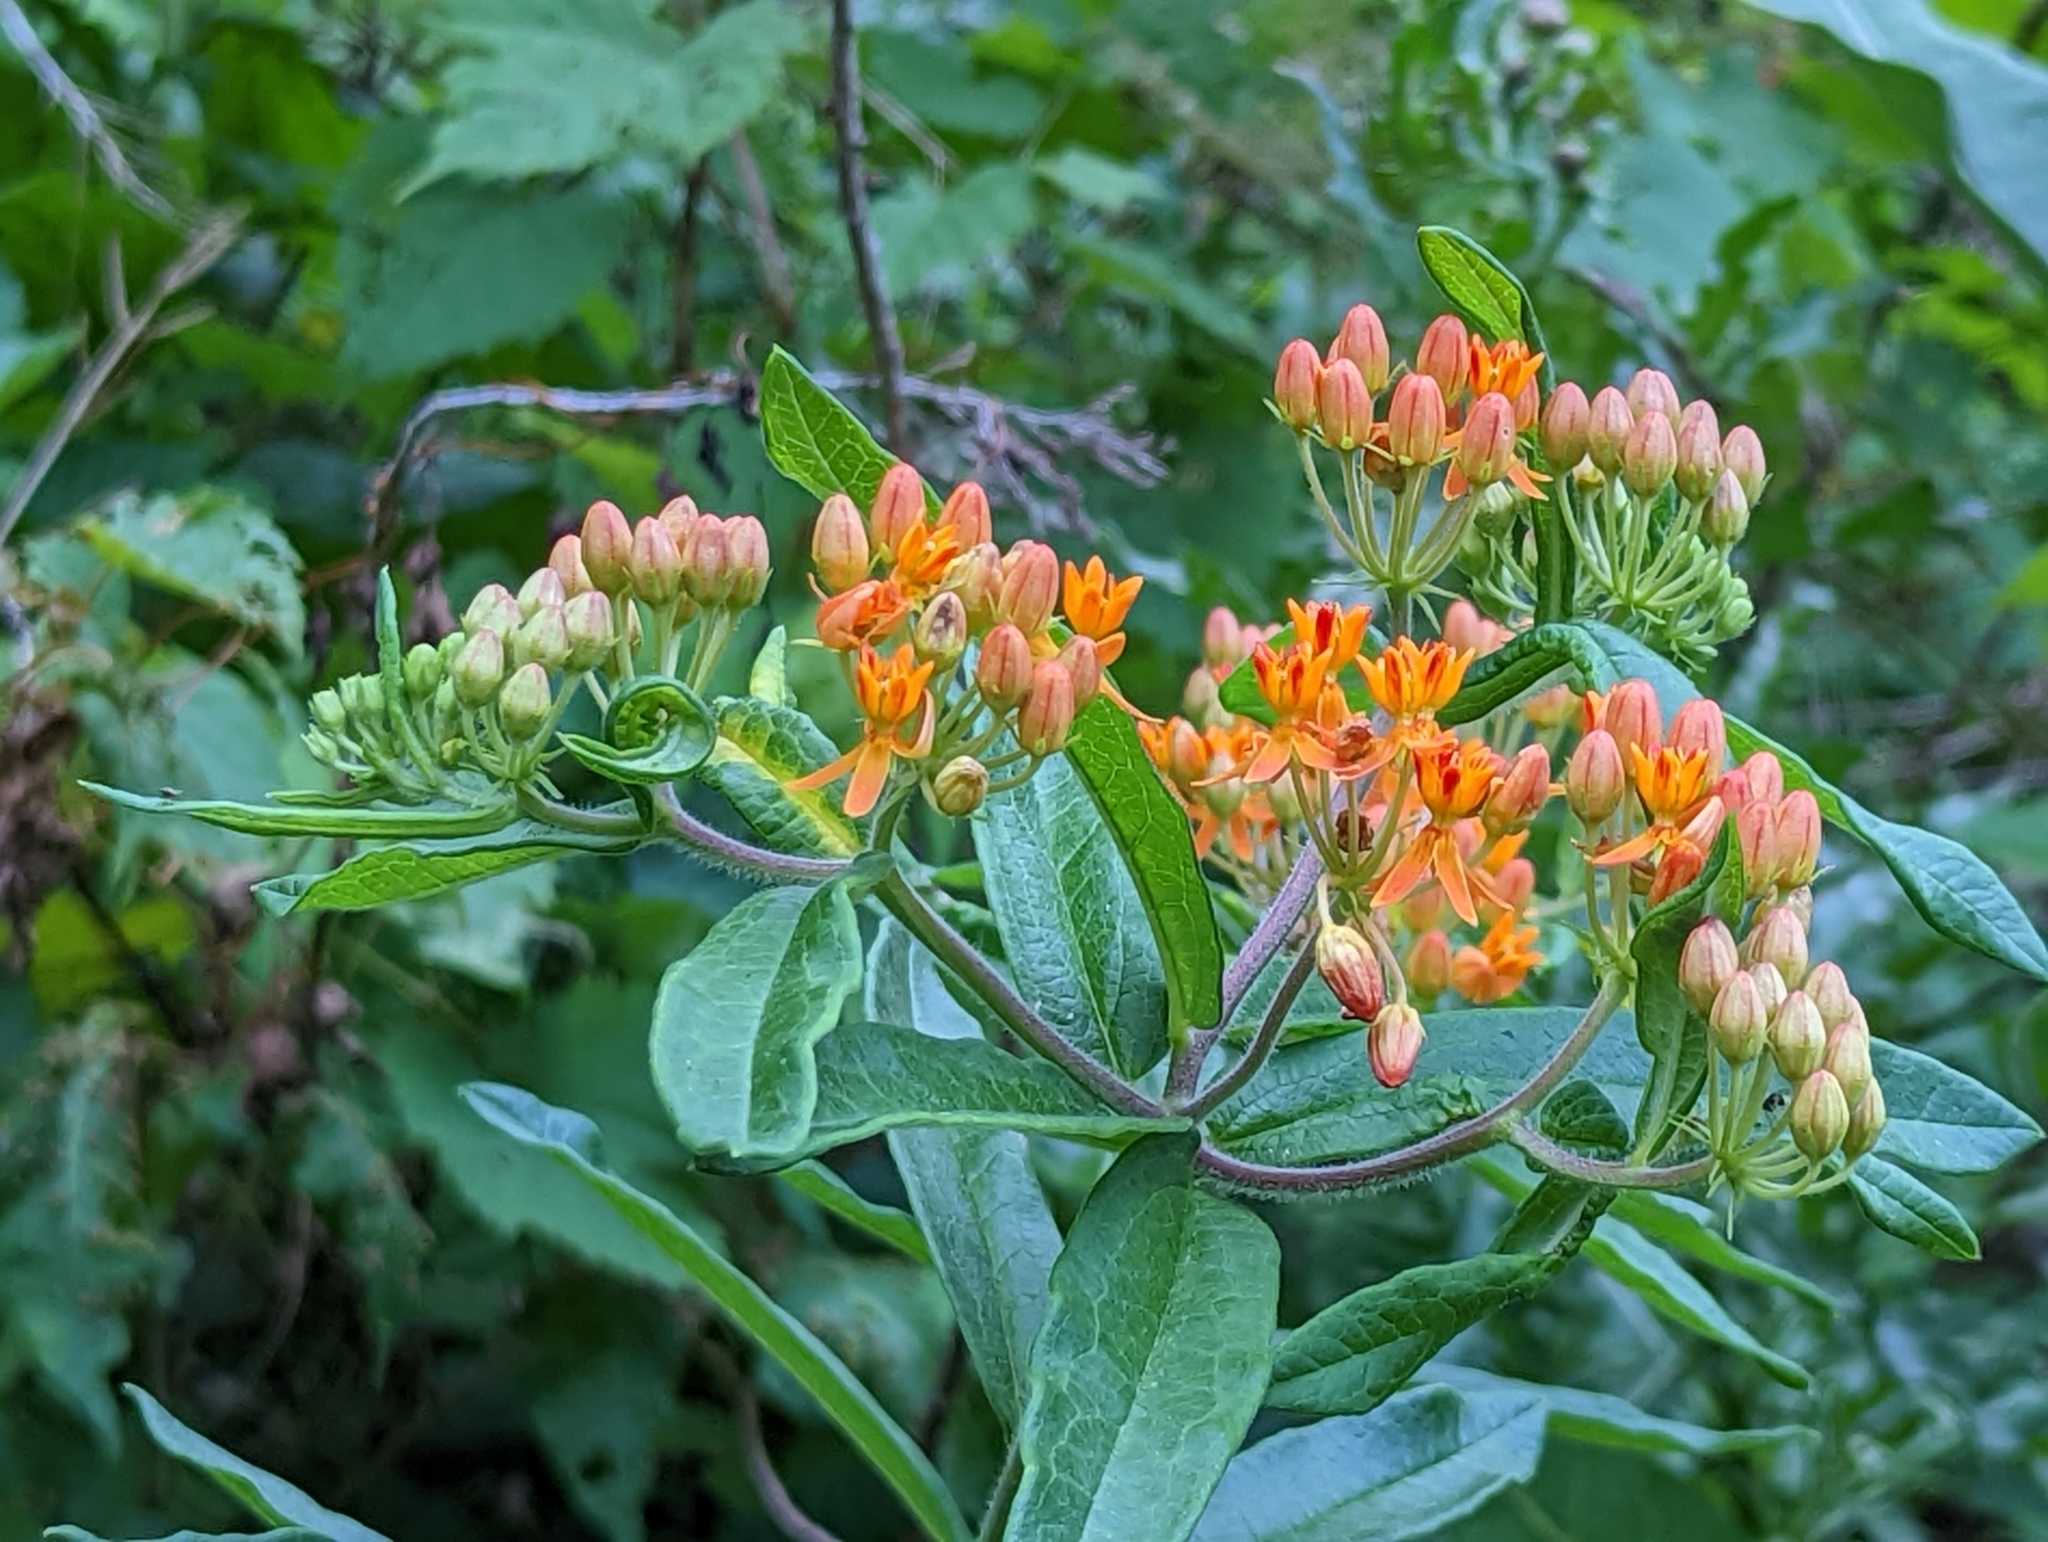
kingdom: Plantae
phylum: Tracheophyta
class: Magnoliopsida
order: Gentianales
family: Apocynaceae
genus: Asclepias
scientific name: Asclepias tuberosa
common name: Butterfly milkweed
